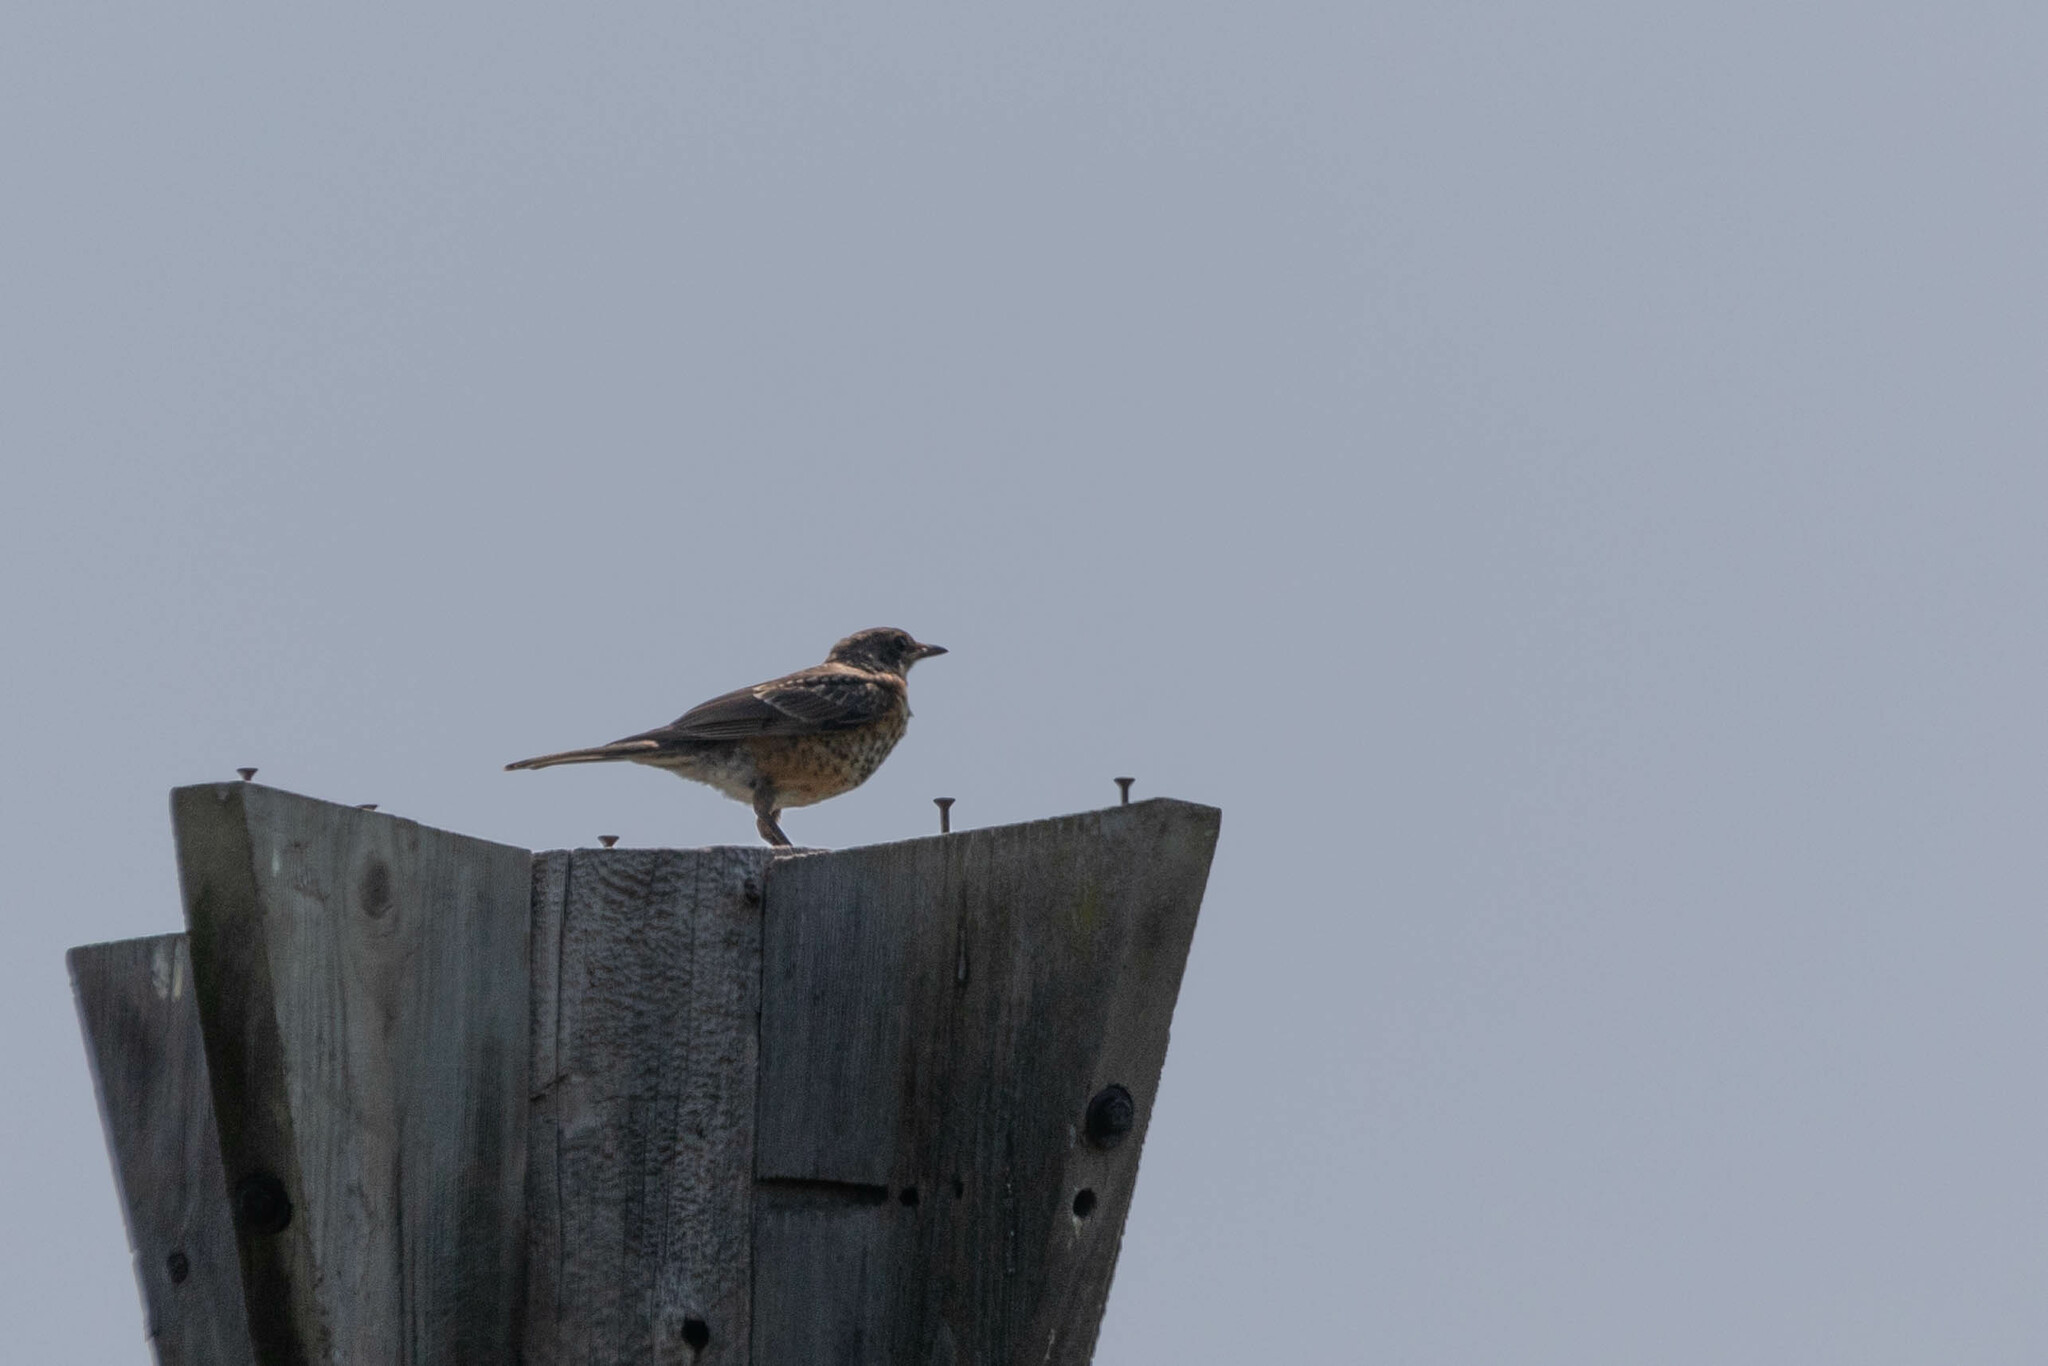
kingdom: Animalia
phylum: Chordata
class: Aves
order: Passeriformes
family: Turdidae
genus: Turdus
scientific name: Turdus migratorius
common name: American robin
